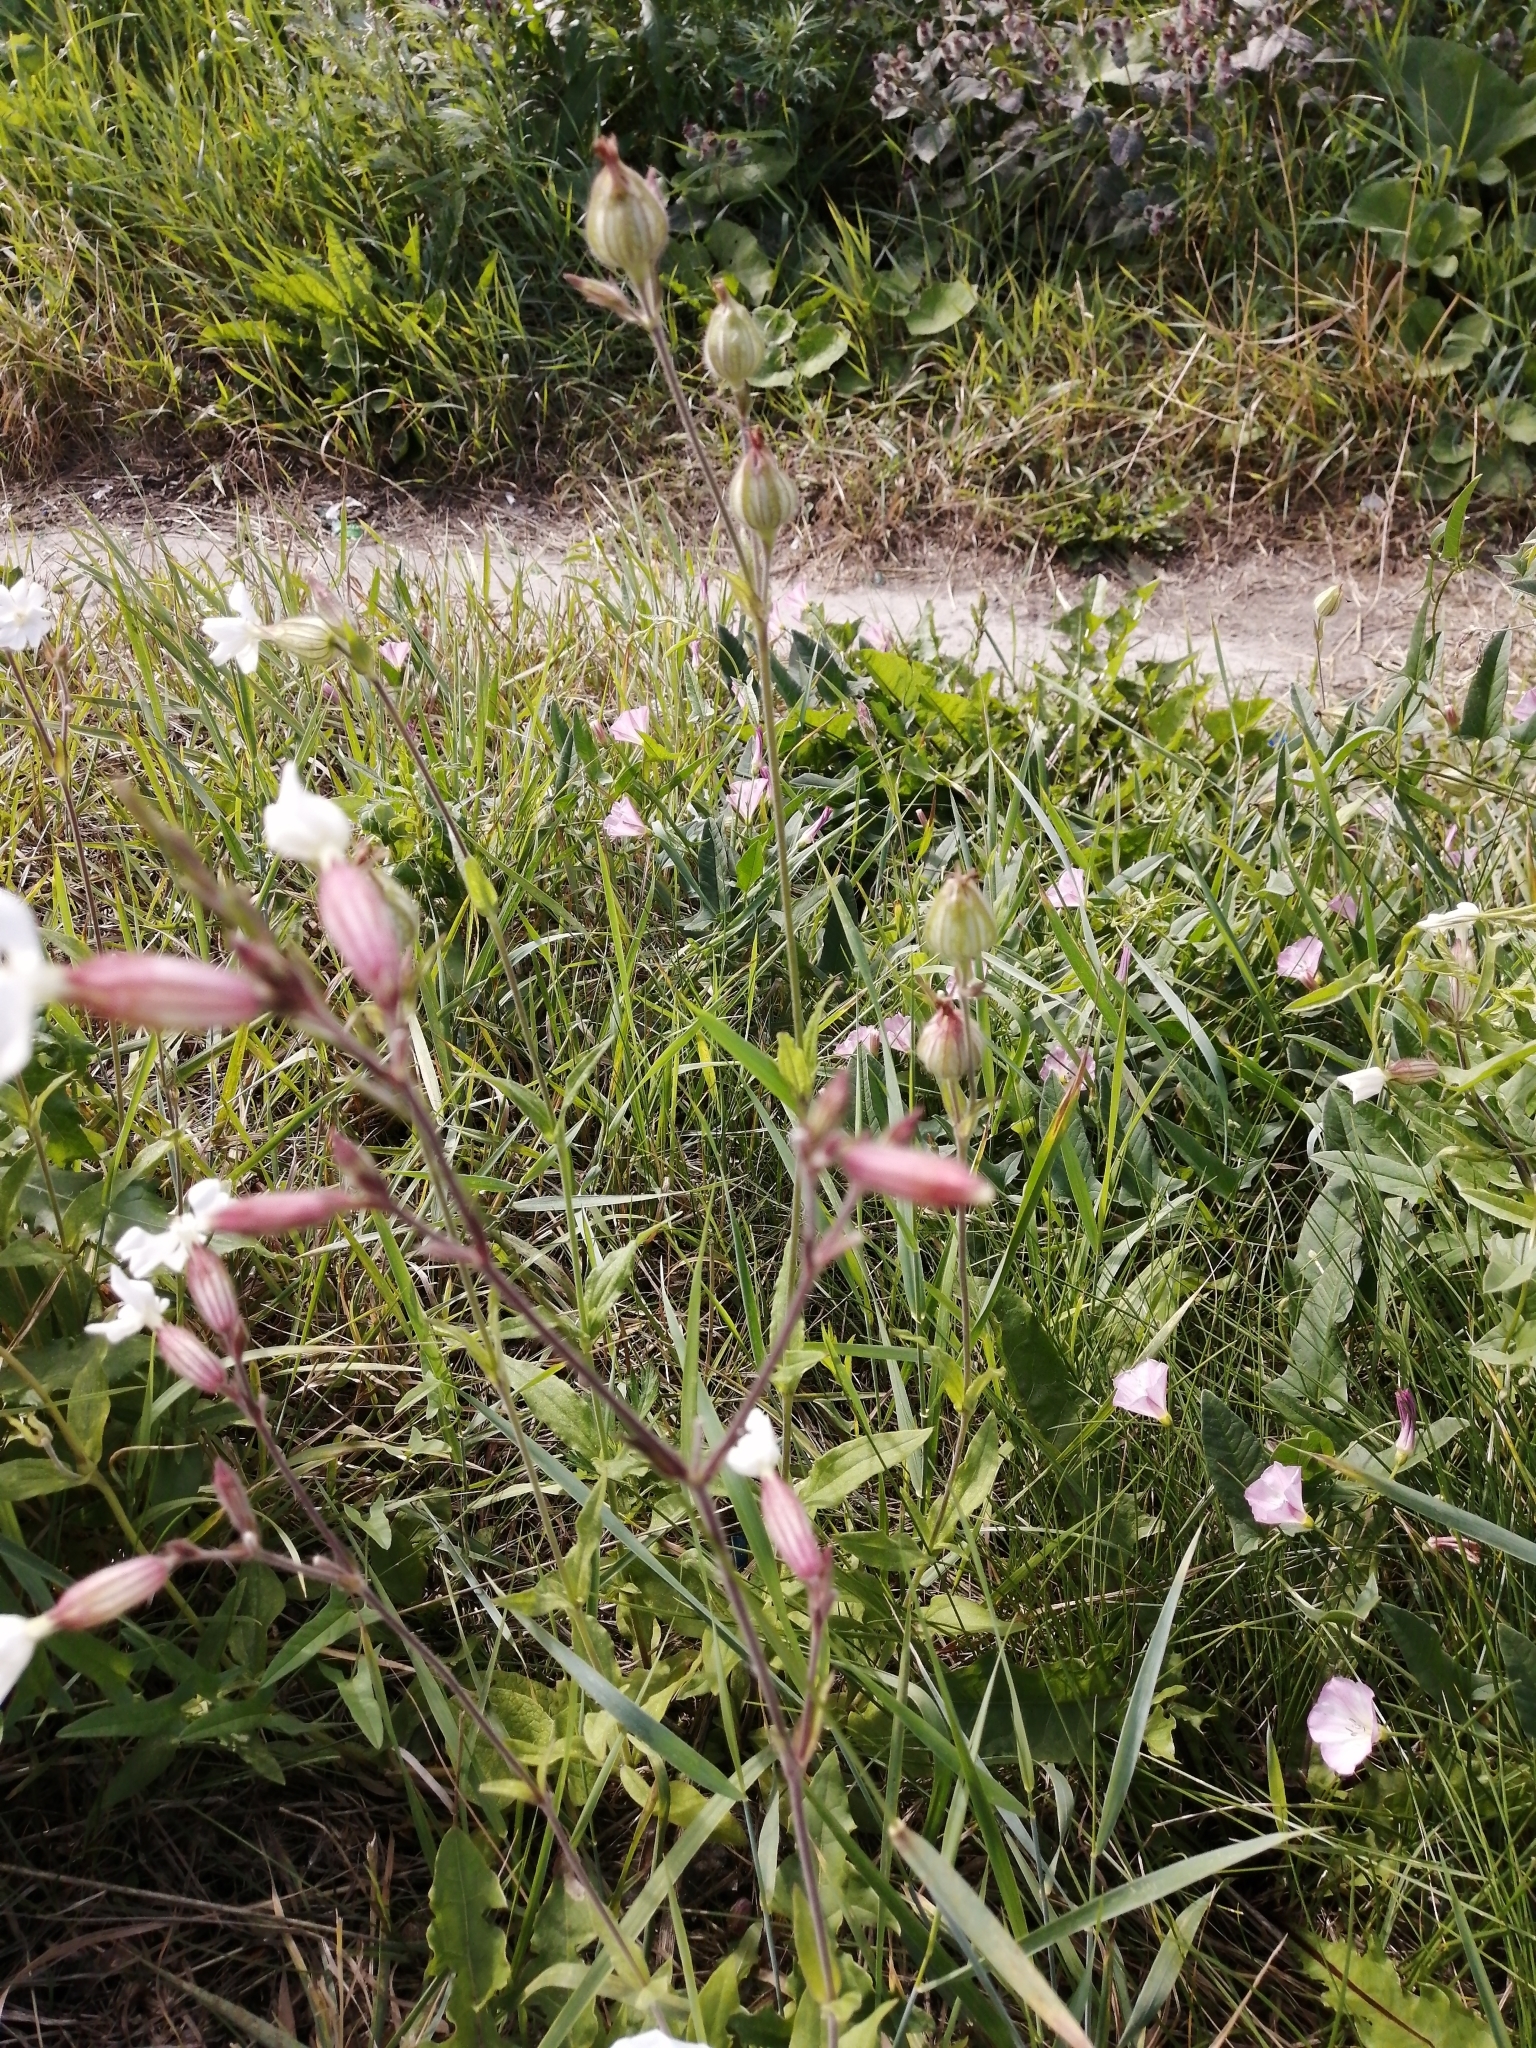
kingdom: Plantae
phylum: Tracheophyta
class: Magnoliopsida
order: Caryophyllales
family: Caryophyllaceae
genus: Silene
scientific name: Silene latifolia
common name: White campion
